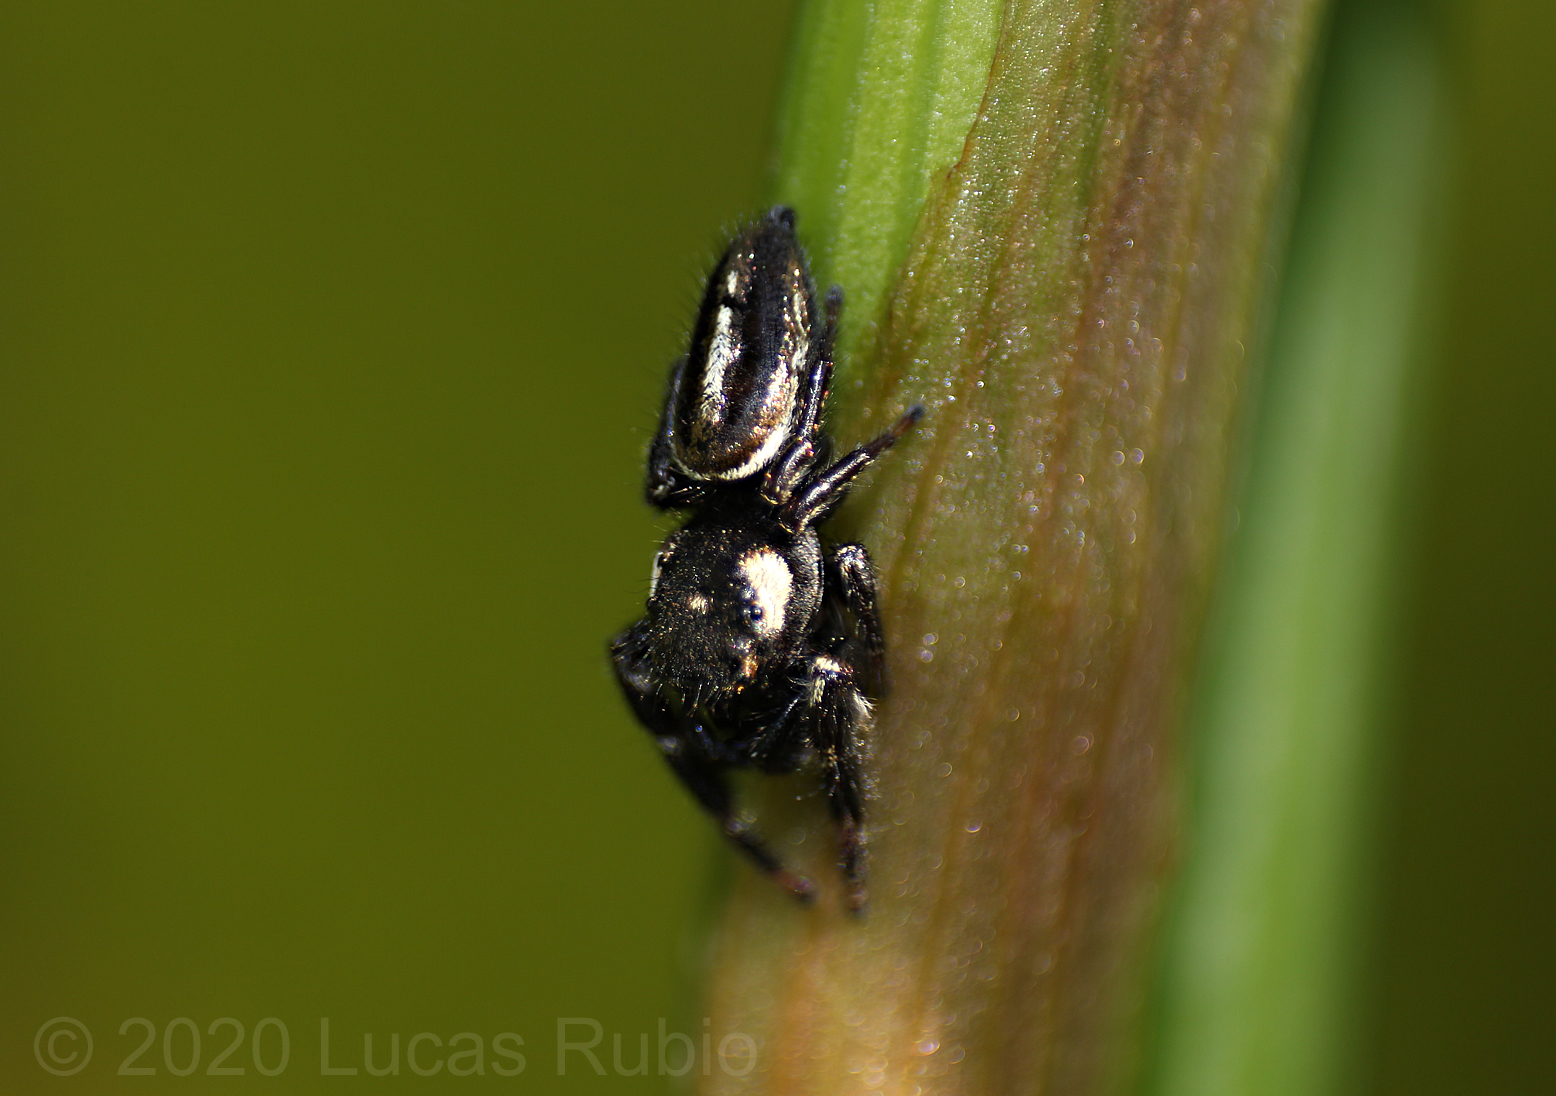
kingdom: Animalia
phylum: Arthropoda
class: Arachnida
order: Araneae
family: Salticidae
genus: Dendryphantes
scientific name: Dendryphantes mordax
